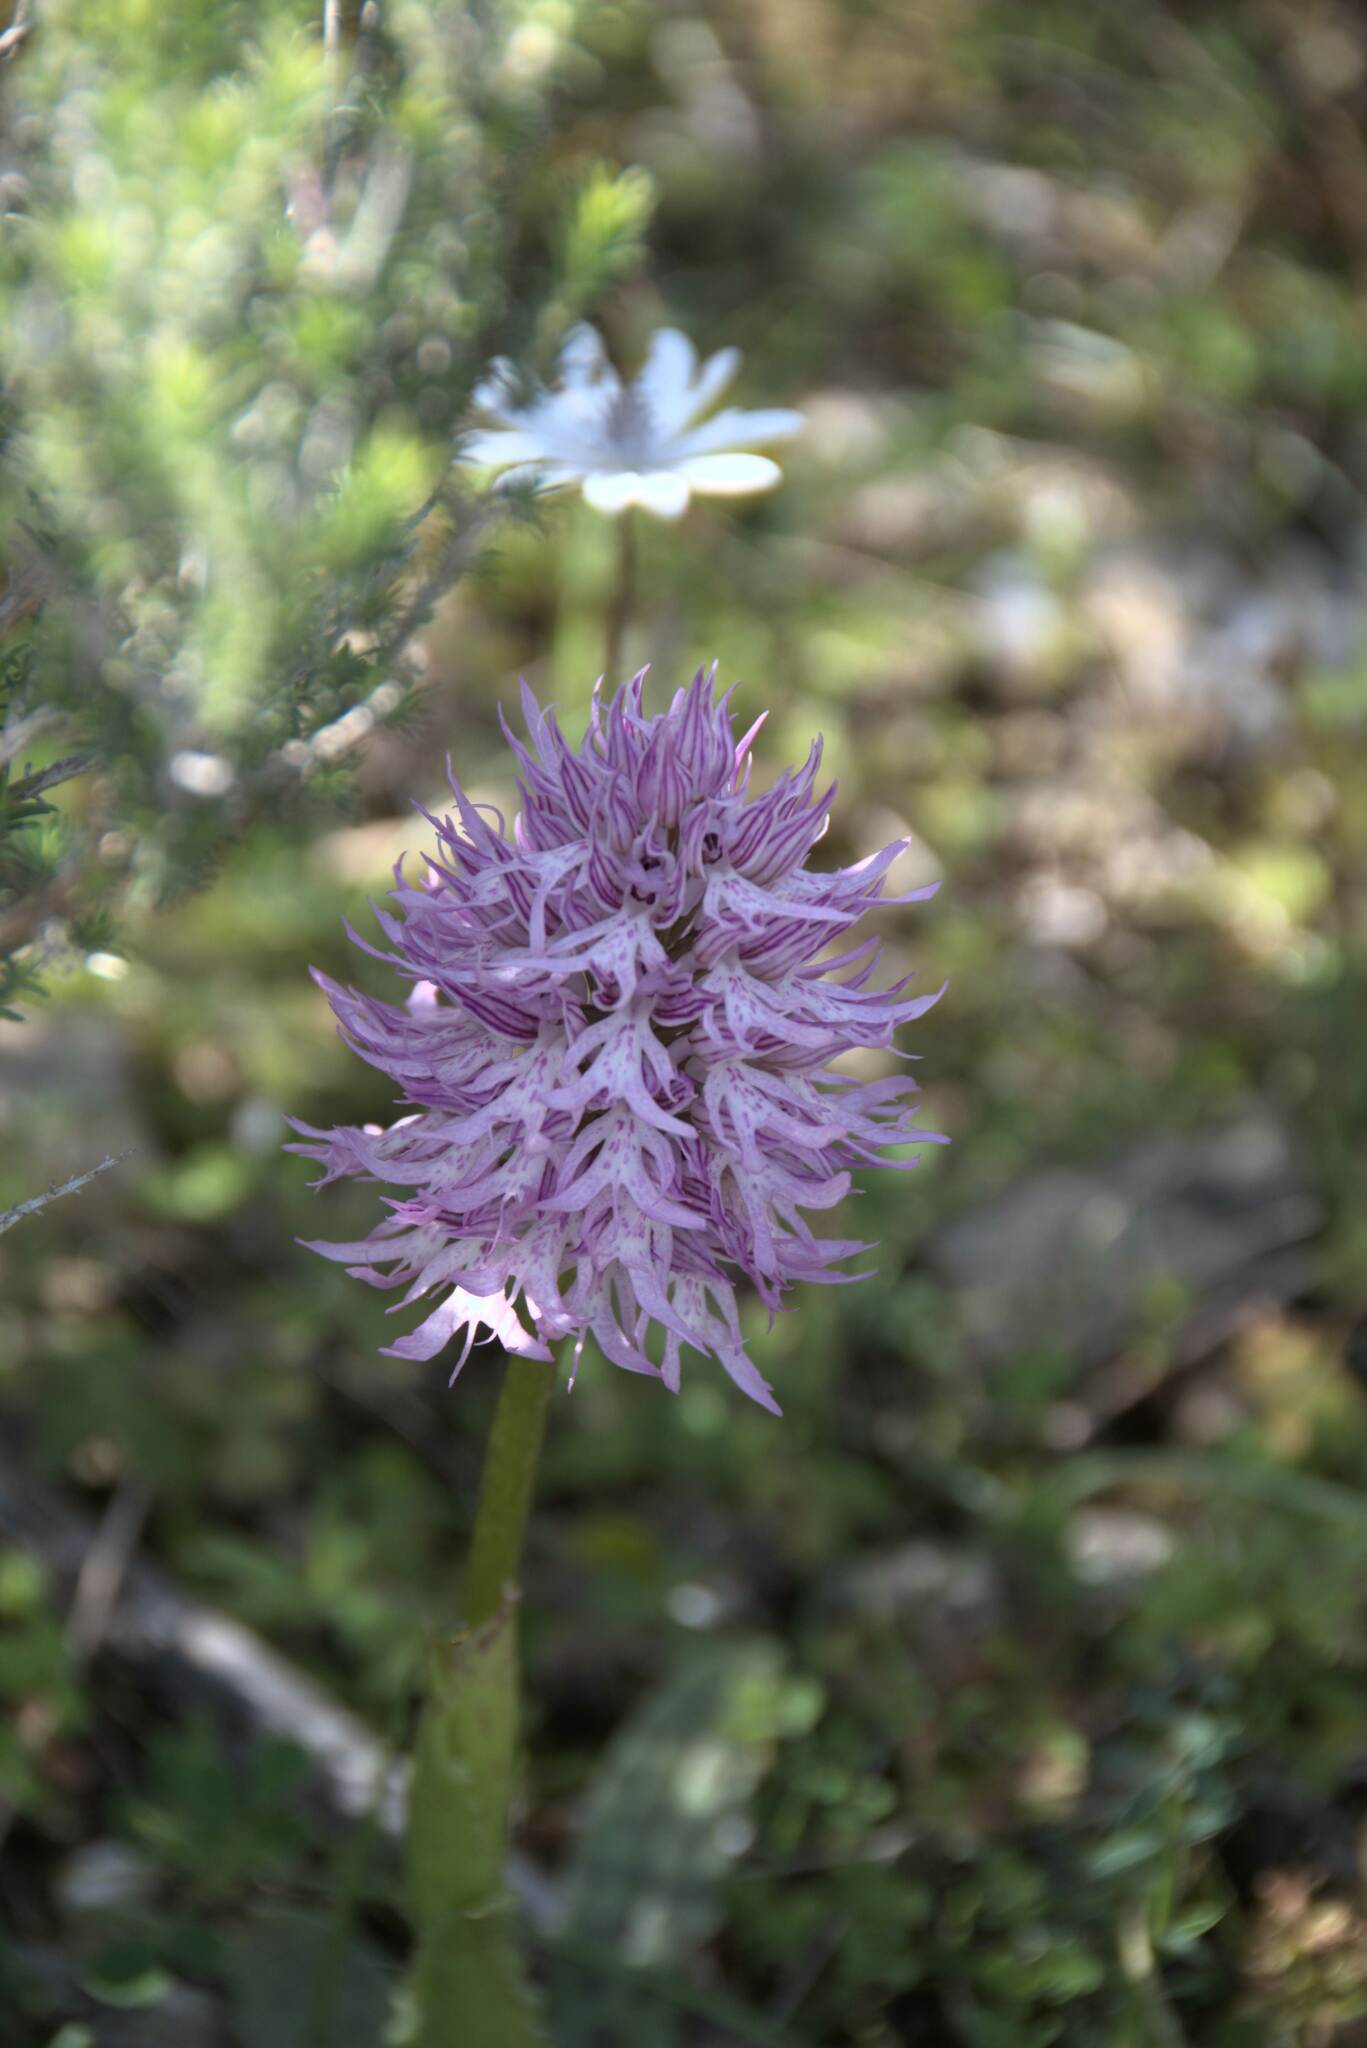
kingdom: Plantae
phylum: Tracheophyta
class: Liliopsida
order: Asparagales
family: Orchidaceae
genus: Orchis
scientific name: Orchis italica
